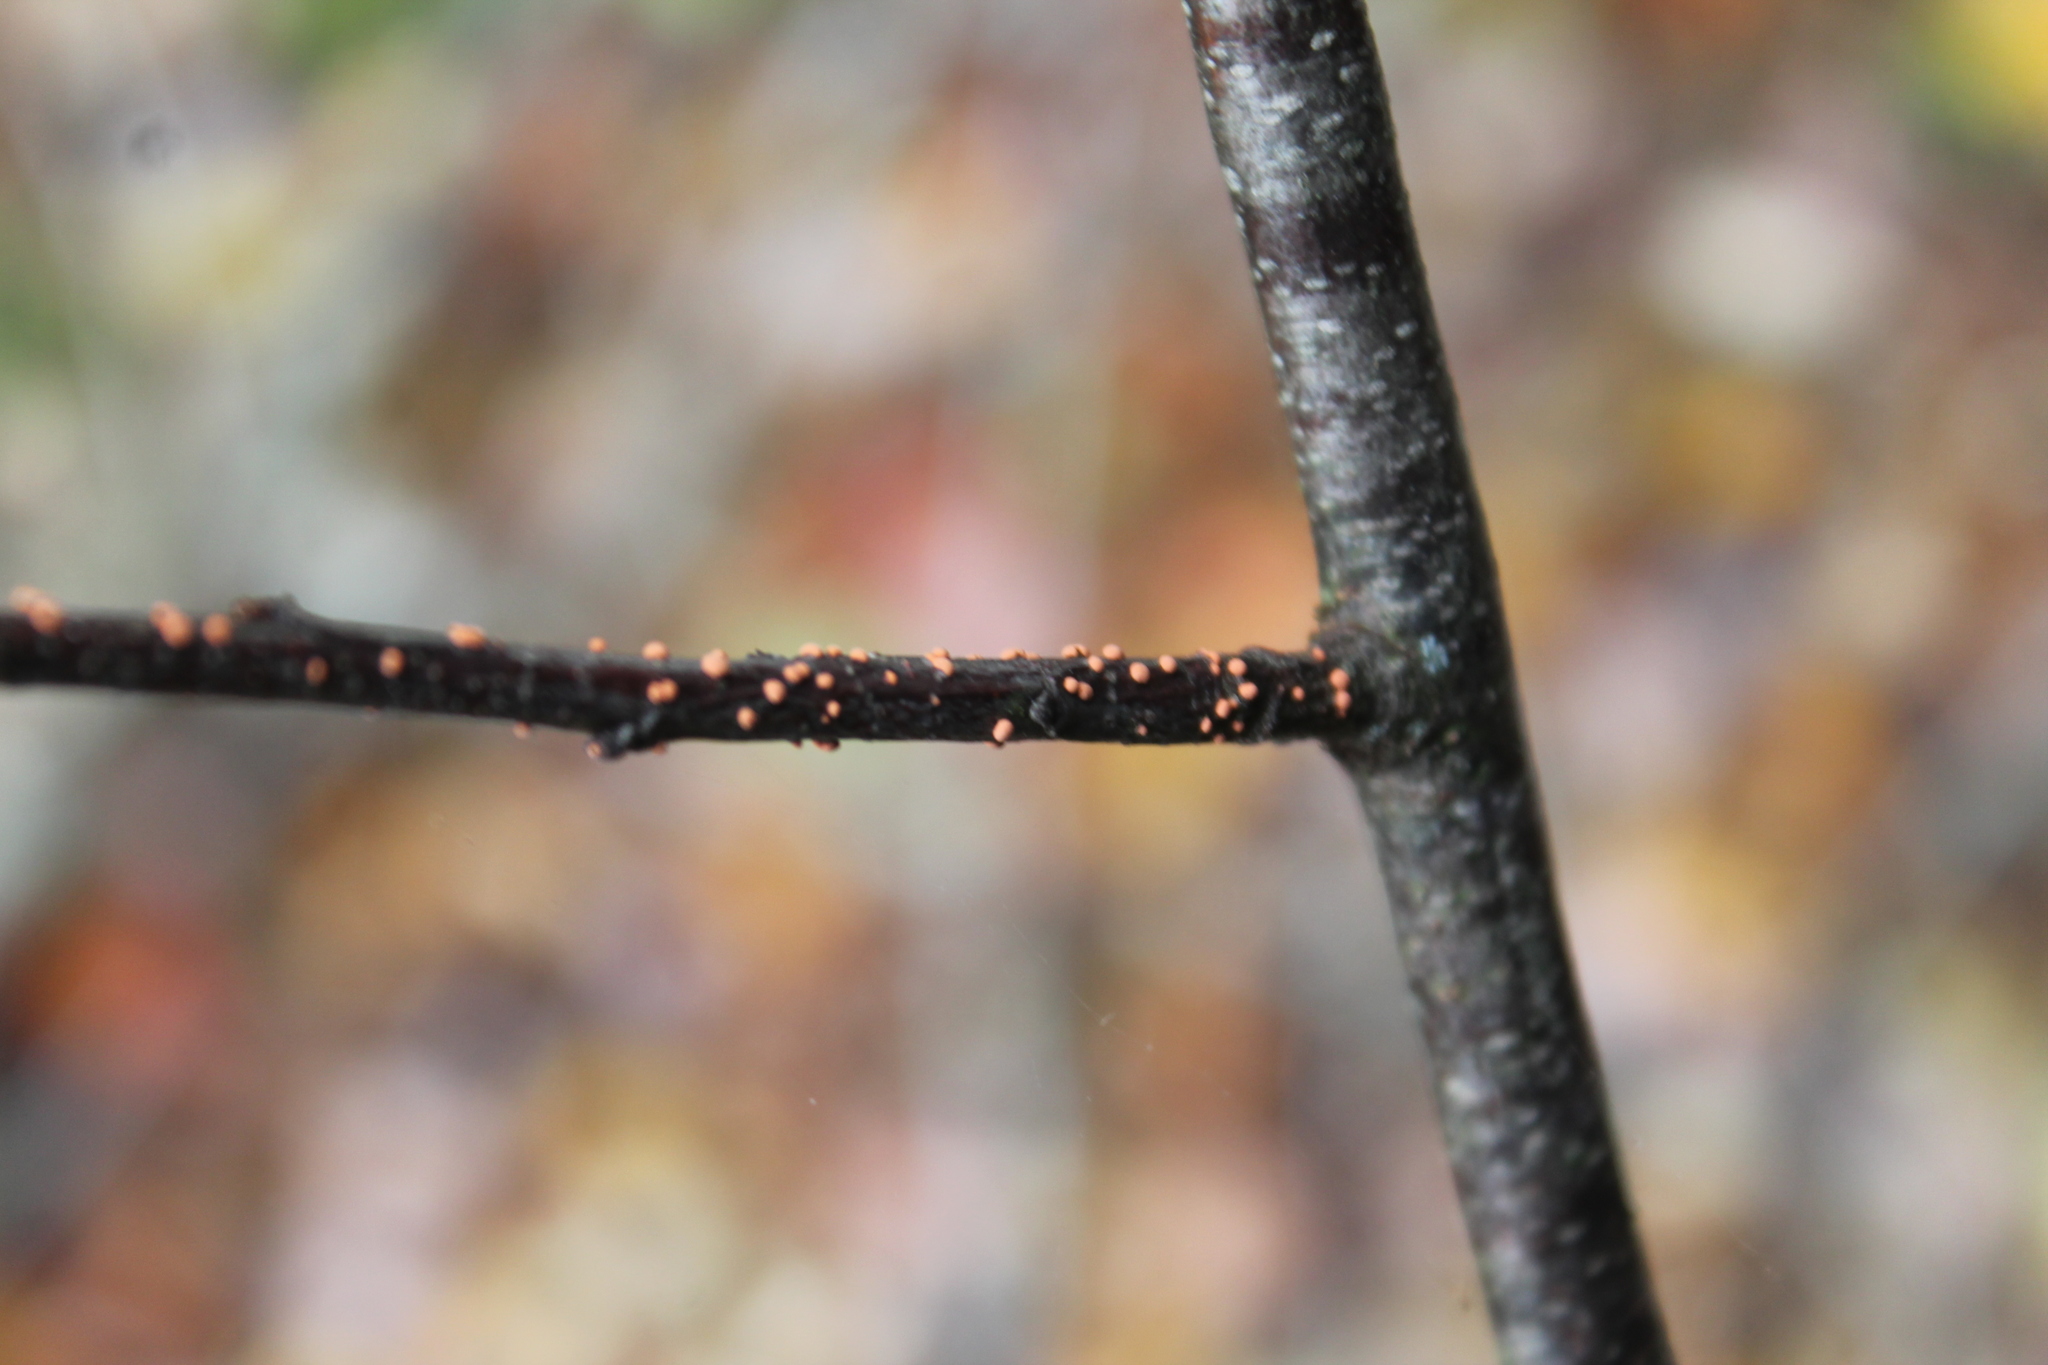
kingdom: Fungi
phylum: Ascomycota
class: Sordariomycetes
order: Hypocreales
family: Nectriaceae
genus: Nectria
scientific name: Nectria cinnabarina
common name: Coral spot
